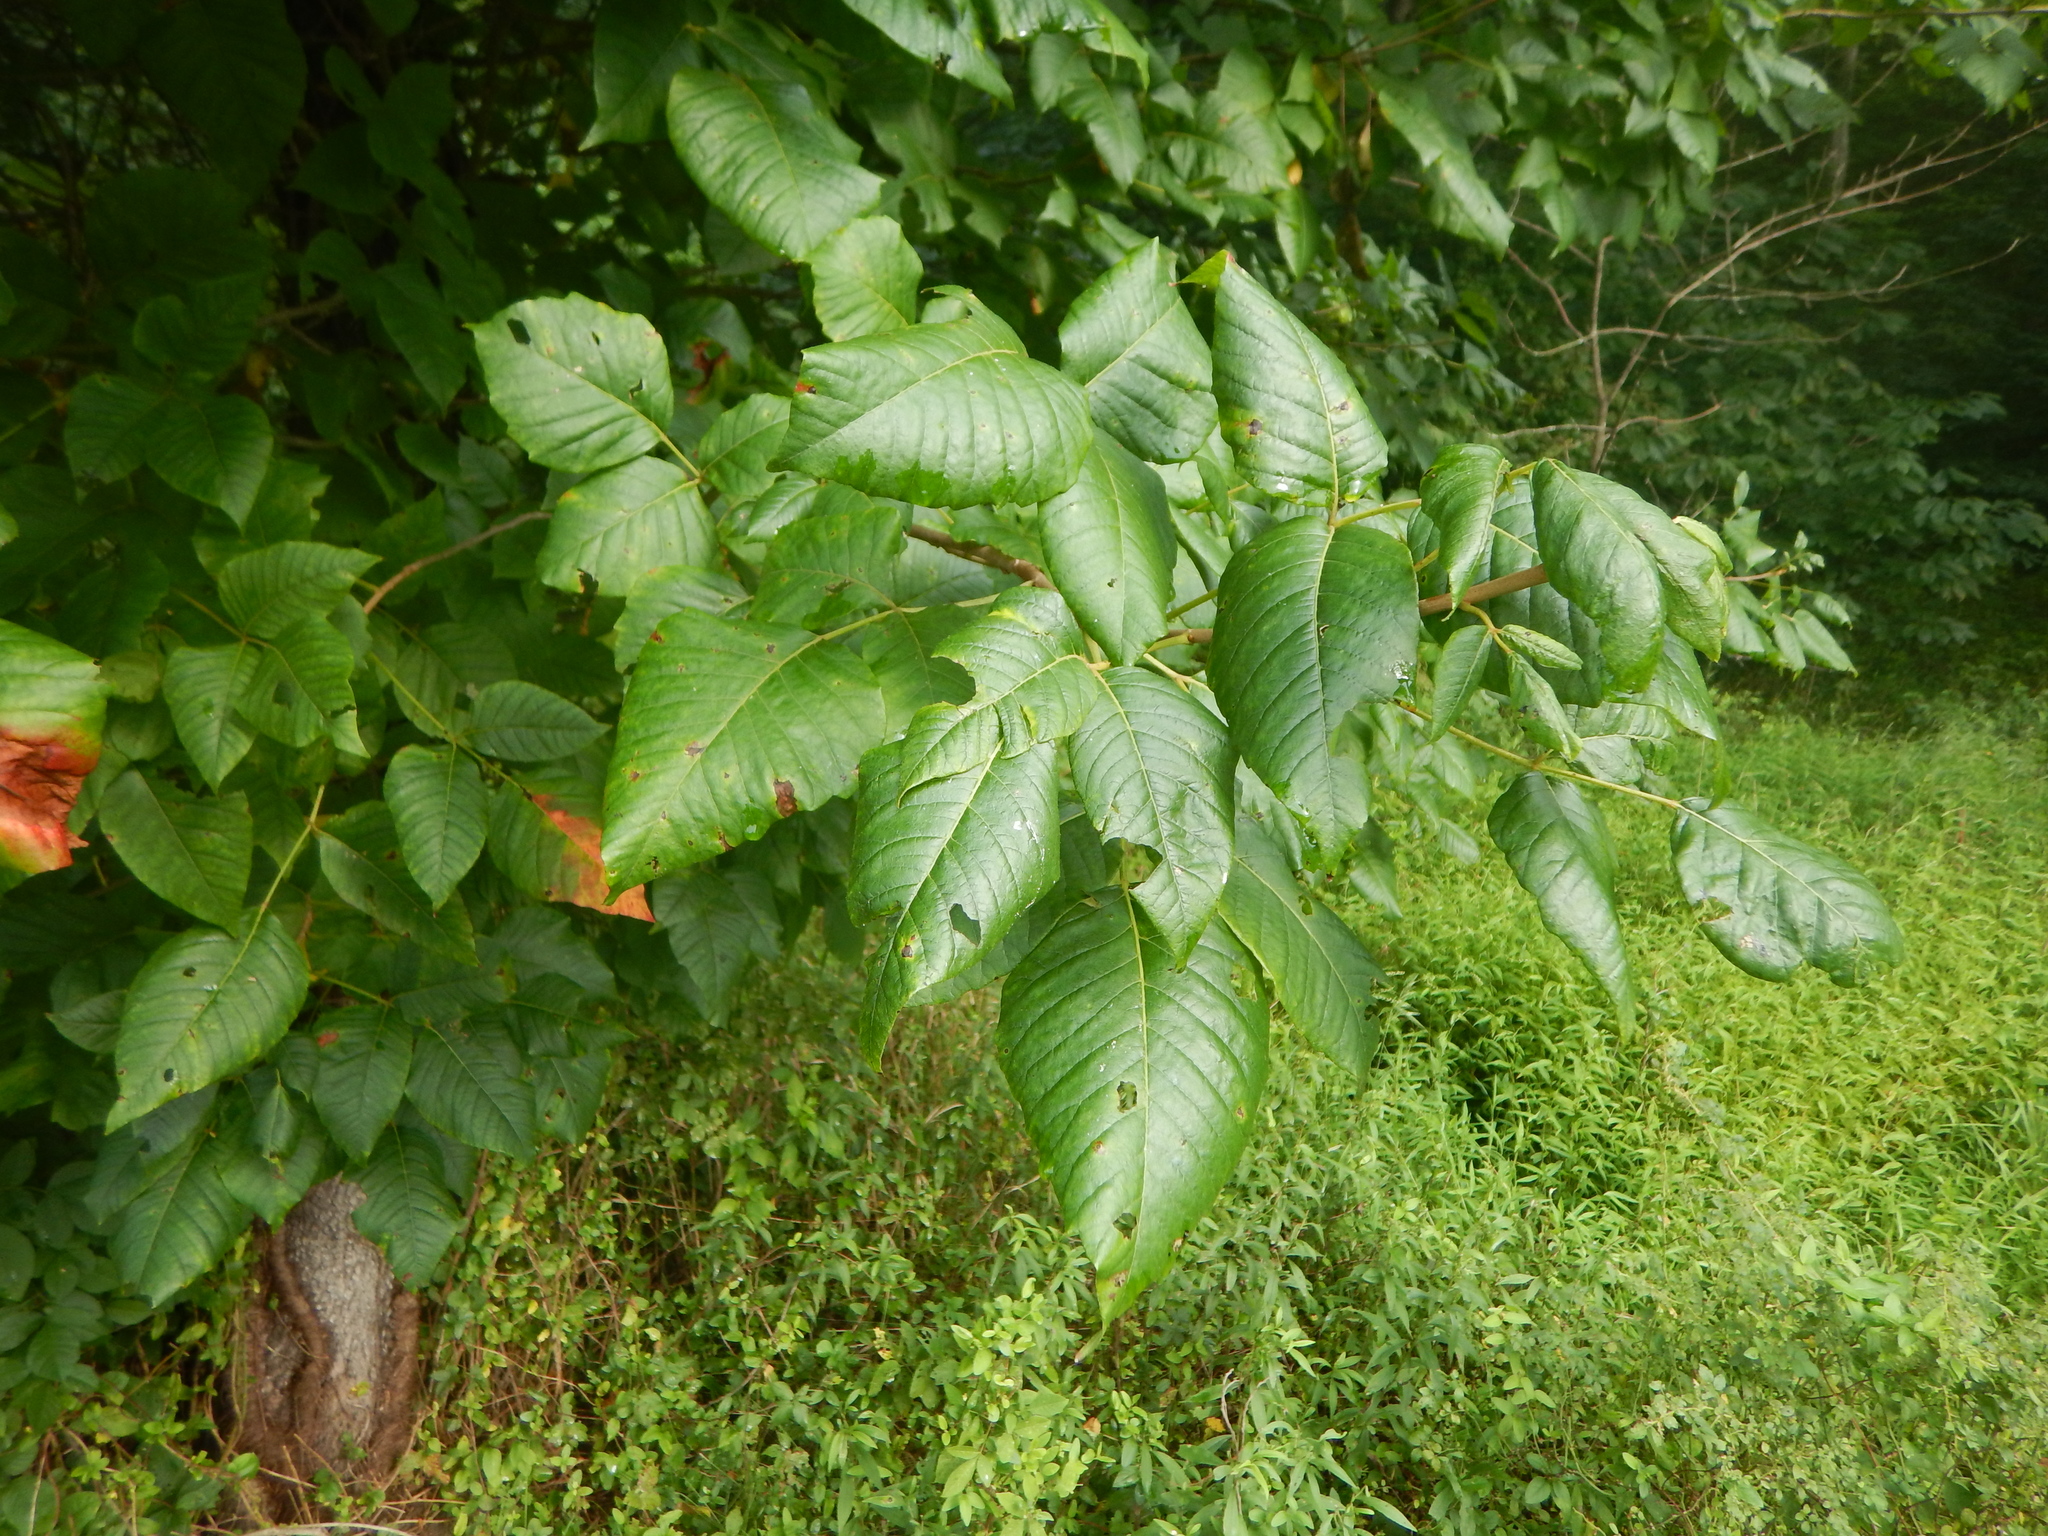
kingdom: Plantae
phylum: Tracheophyta
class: Magnoliopsida
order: Sapindales
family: Anacardiaceae
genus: Toxicodendron
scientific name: Toxicodendron radicans
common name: Poison ivy
